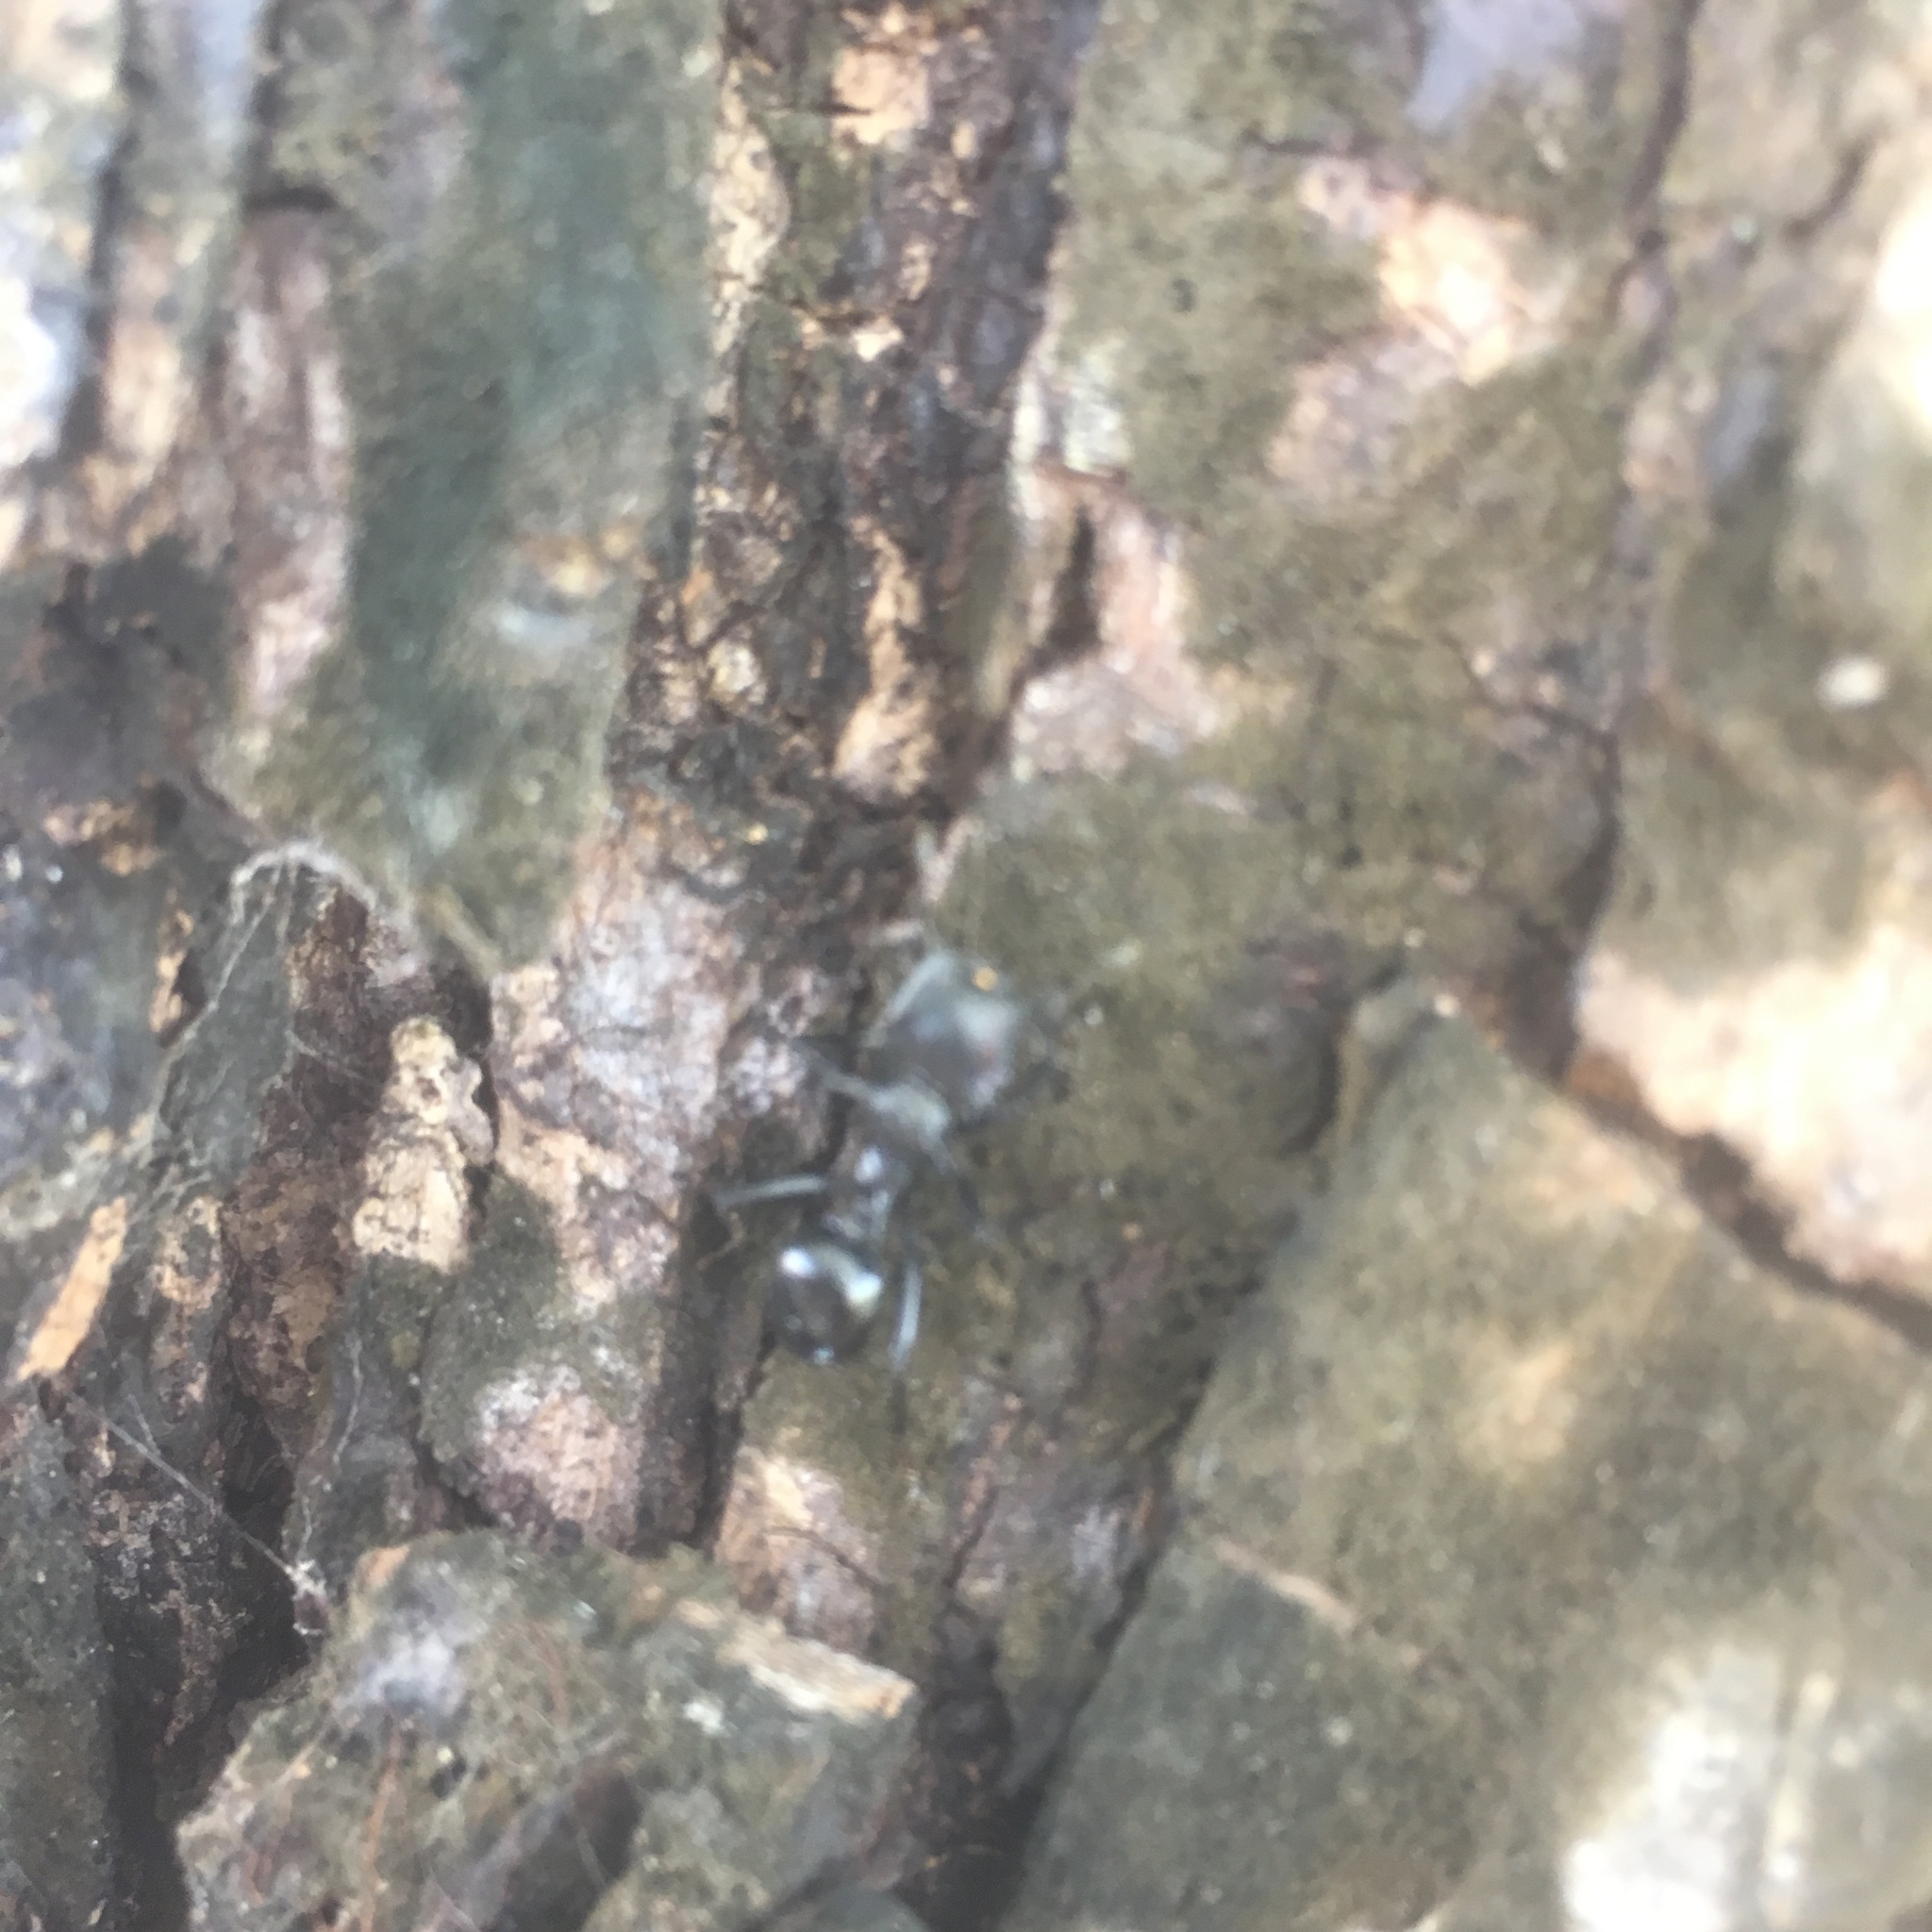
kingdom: Animalia
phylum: Arthropoda
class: Insecta
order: Hymenoptera
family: Formicidae
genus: Cephalotes
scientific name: Cephalotes atratus
